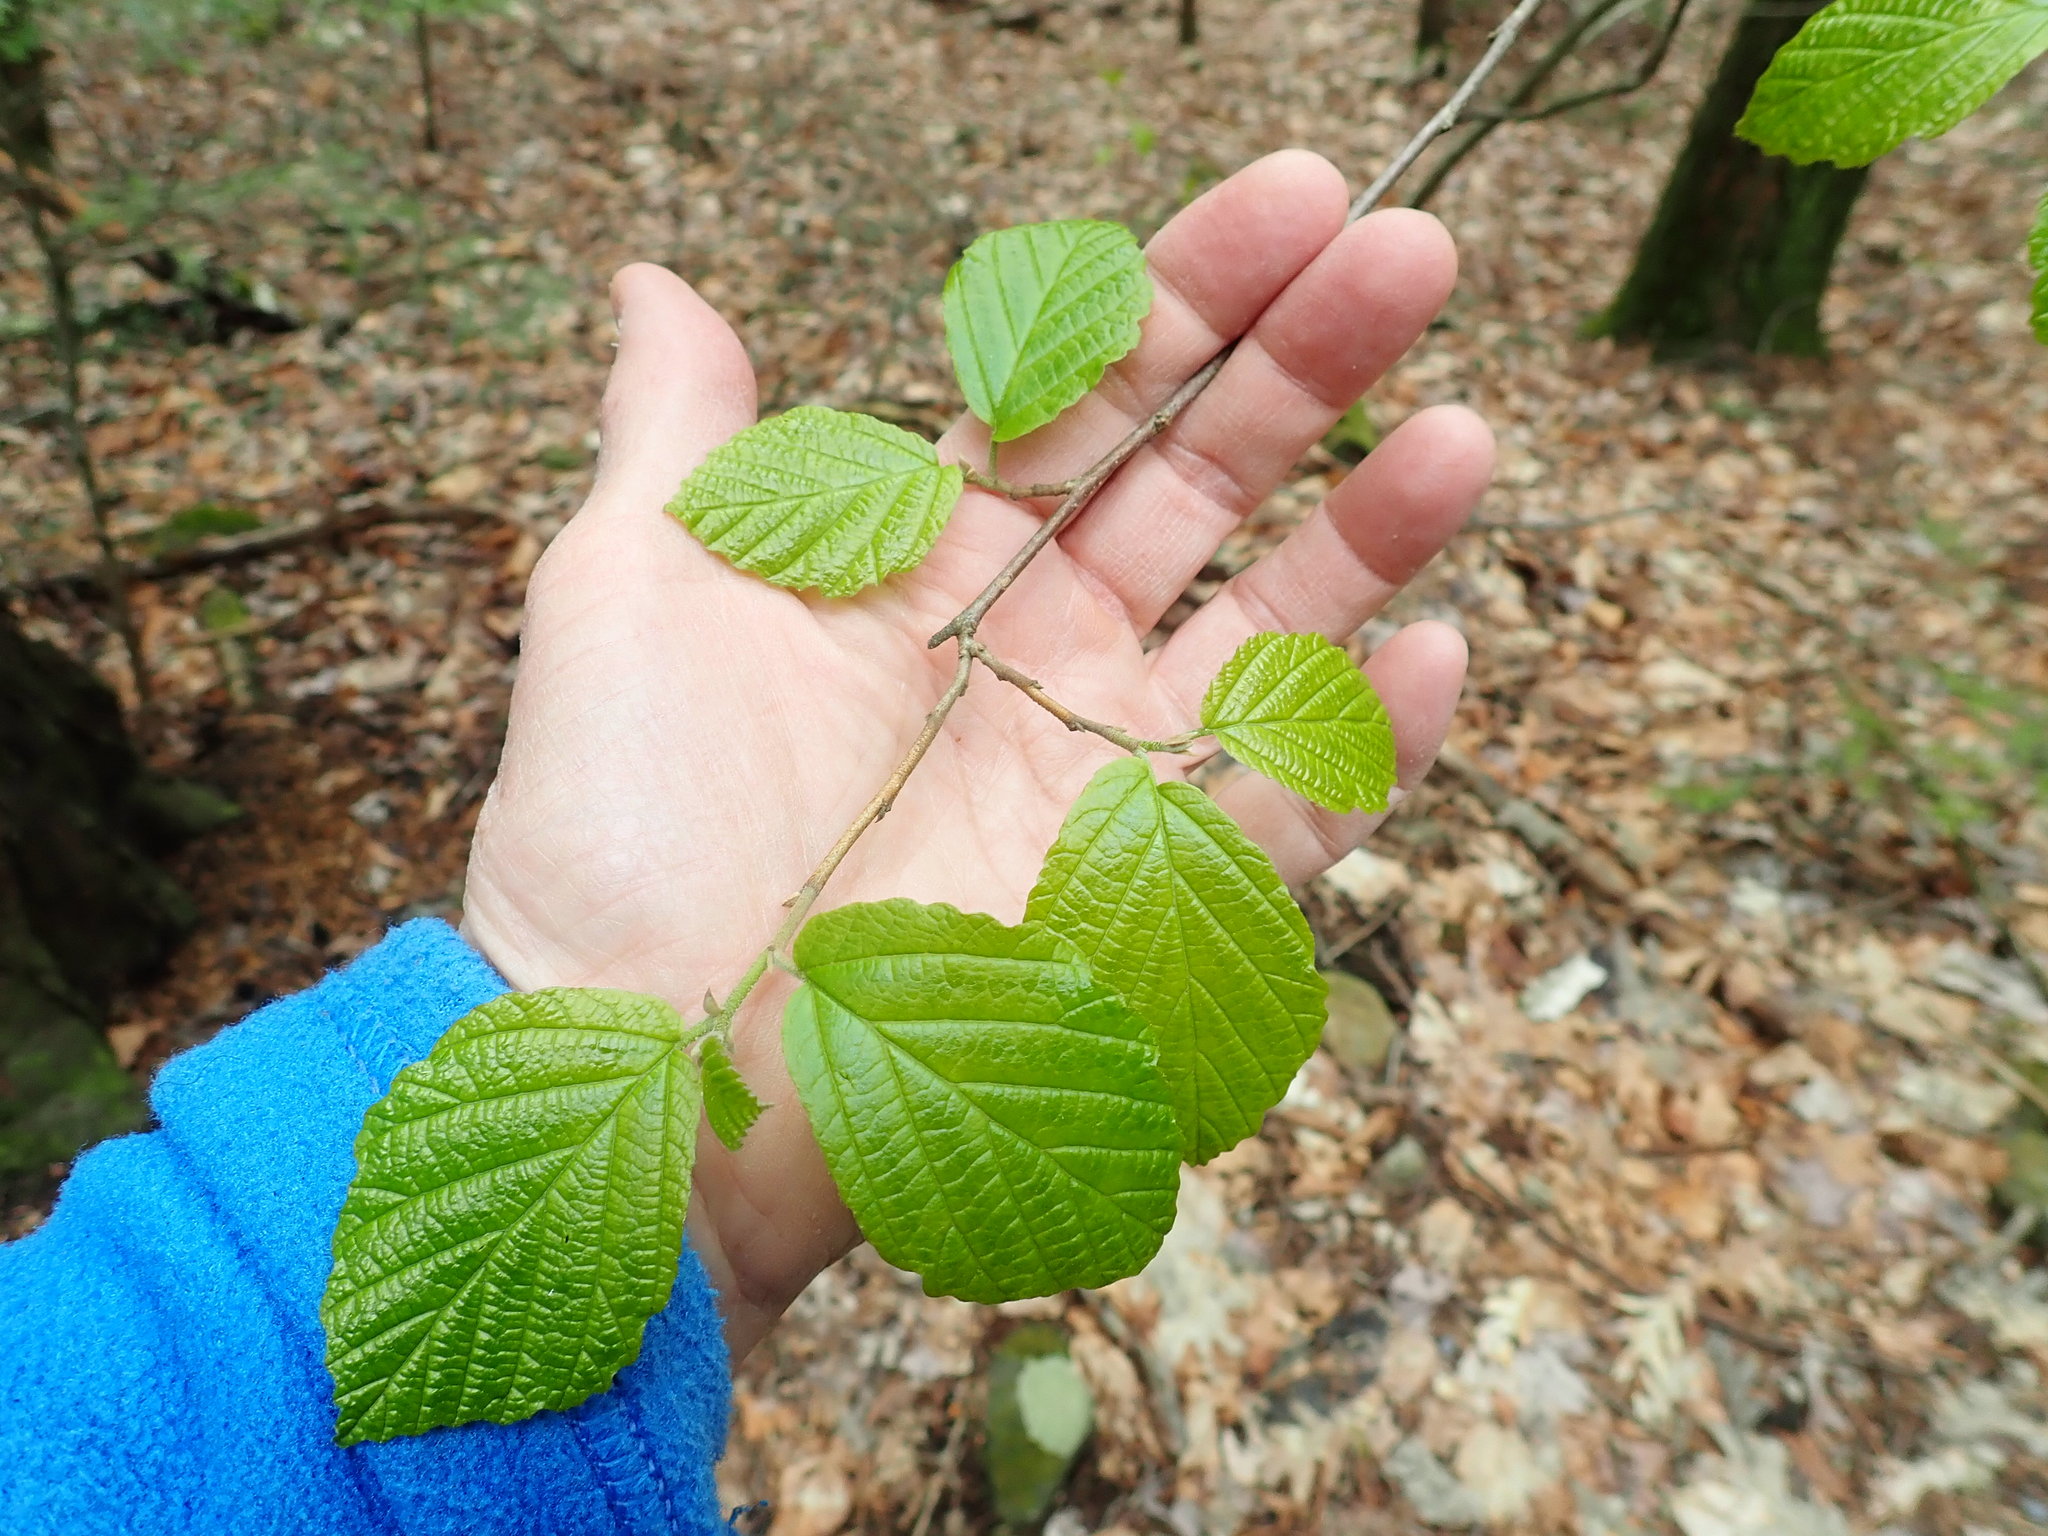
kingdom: Plantae
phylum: Tracheophyta
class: Magnoliopsida
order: Saxifragales
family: Hamamelidaceae
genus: Hamamelis
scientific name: Hamamelis virginiana
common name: Witch-hazel
